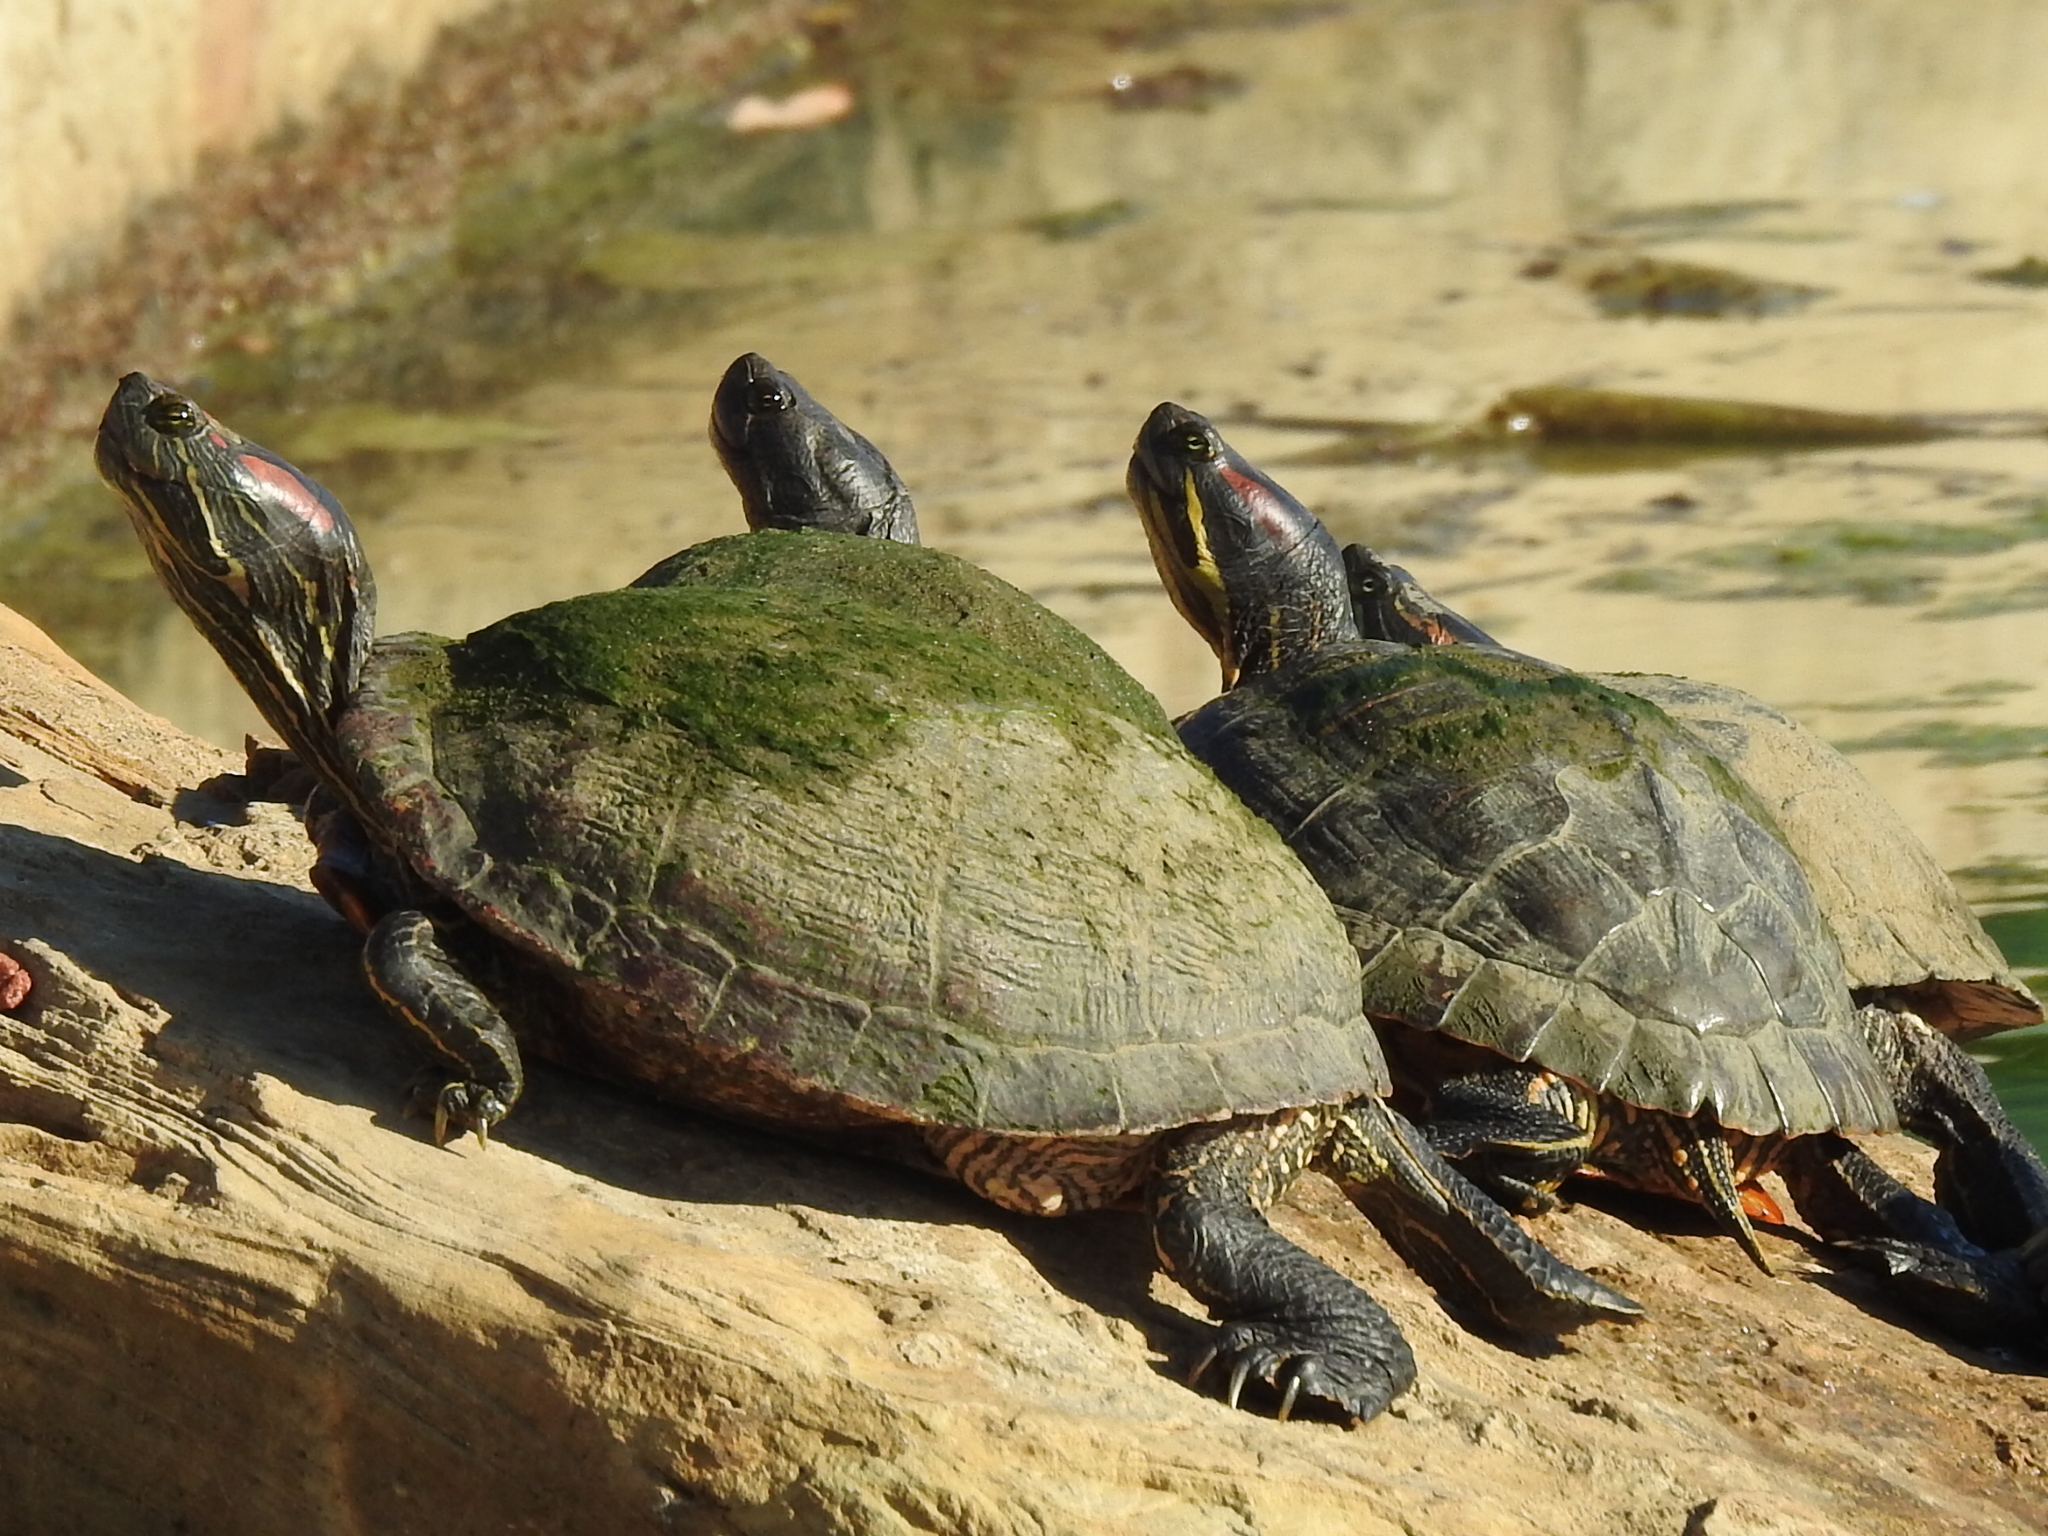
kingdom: Animalia
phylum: Chordata
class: Testudines
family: Emydidae
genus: Trachemys
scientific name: Trachemys scripta
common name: Slider
